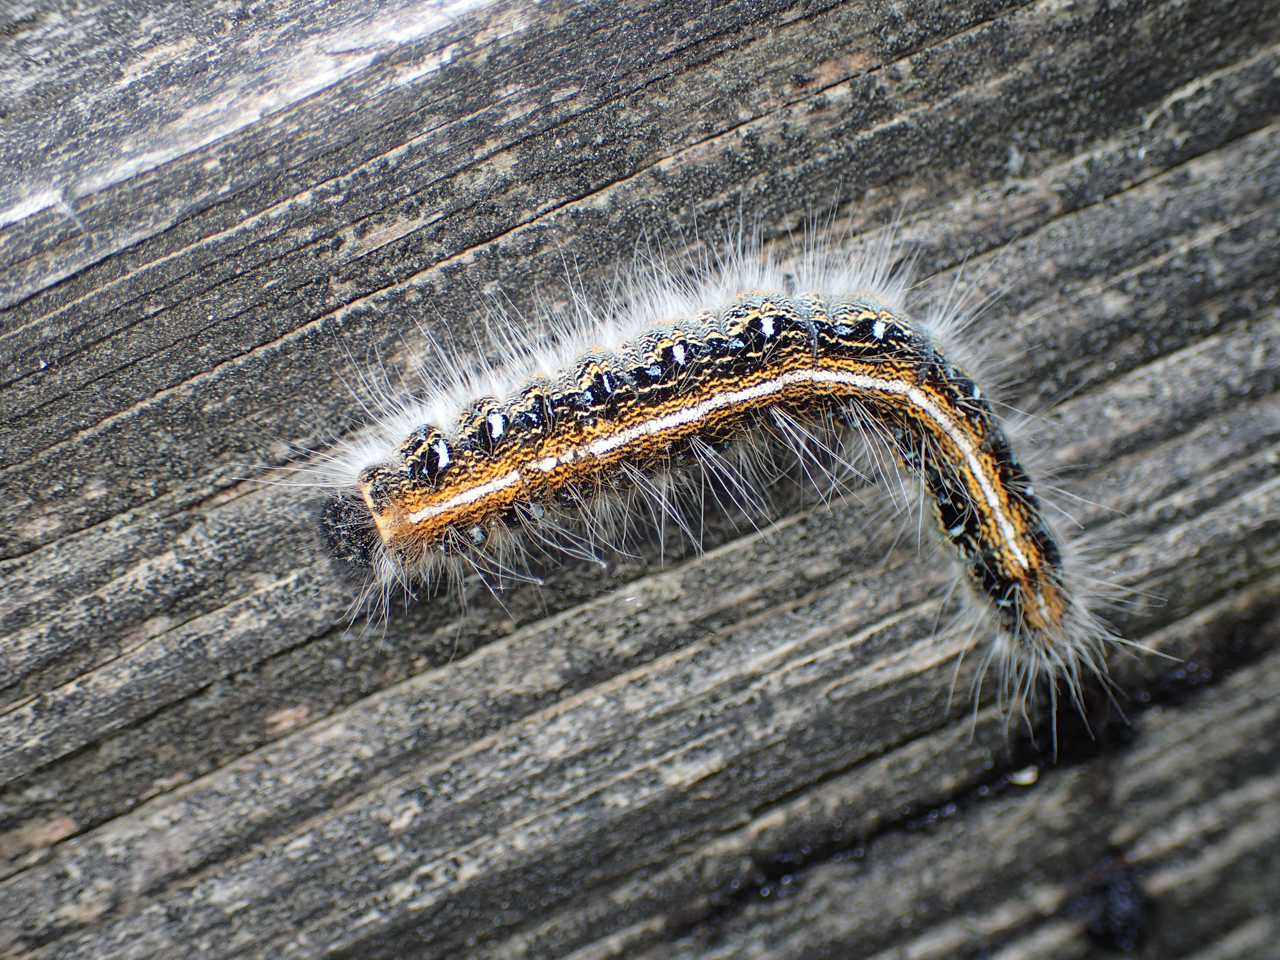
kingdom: Animalia
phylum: Arthropoda
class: Insecta
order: Lepidoptera
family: Lasiocampidae
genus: Malacosoma
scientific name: Malacosoma americana
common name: Eastern tent caterpillar moth
